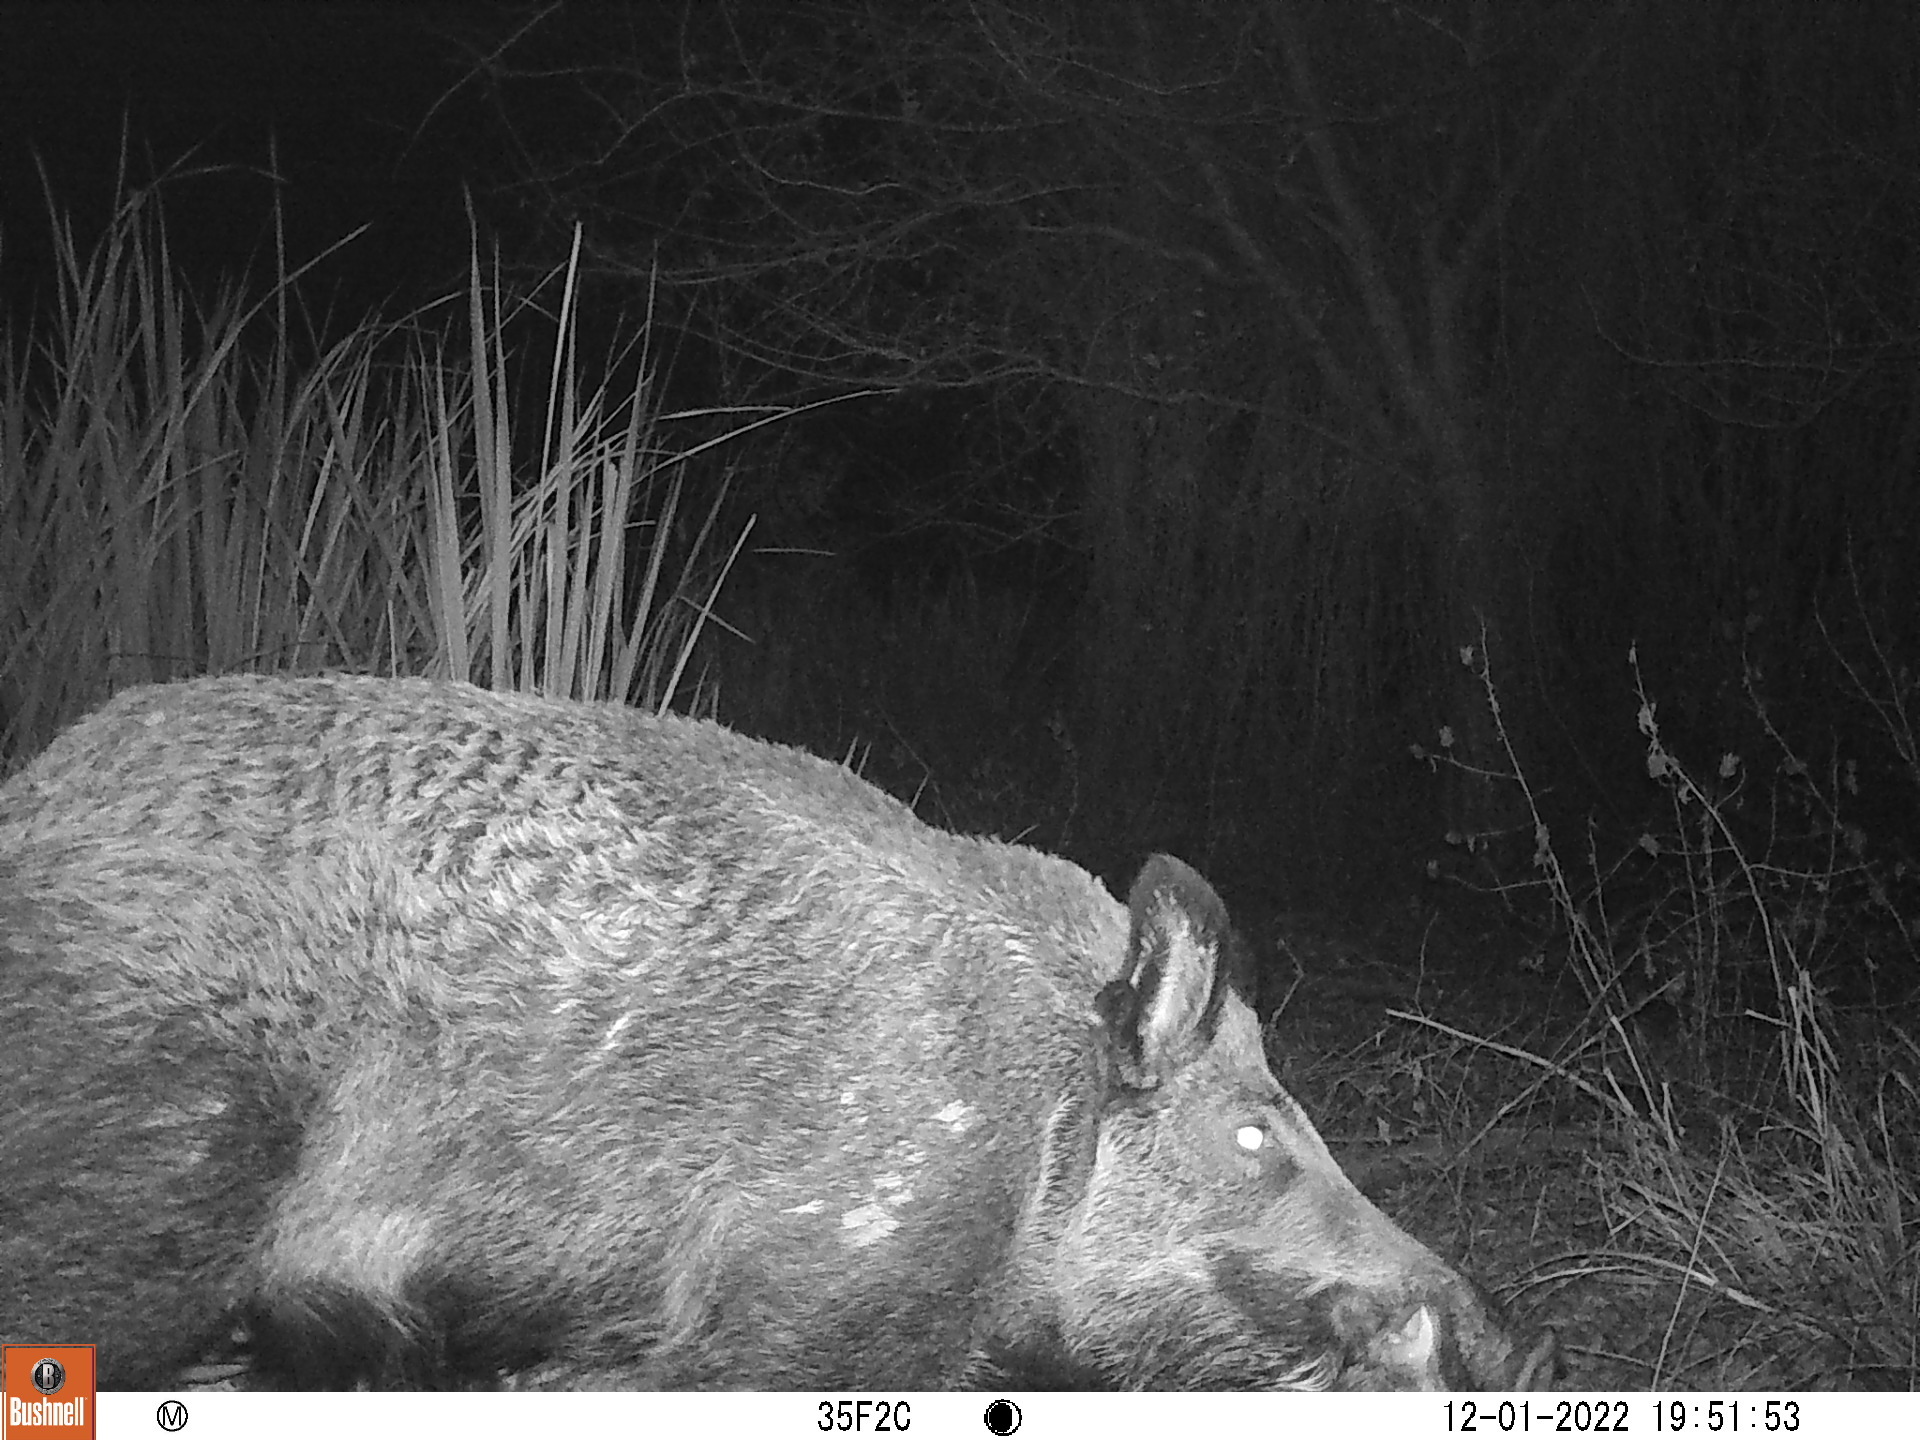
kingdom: Animalia
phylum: Chordata
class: Mammalia
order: Artiodactyla
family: Suidae
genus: Sus
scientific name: Sus scrofa
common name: Wild boar
